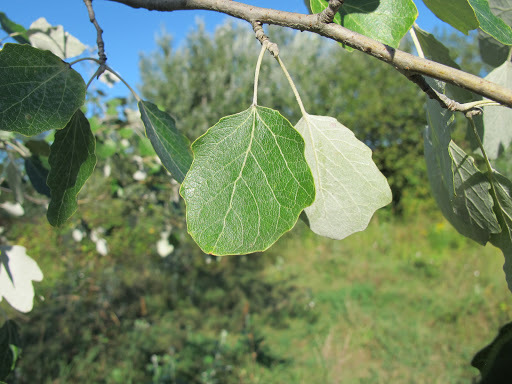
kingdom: Plantae
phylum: Tracheophyta
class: Magnoliopsida
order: Malpighiales
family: Salicaceae
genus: Populus
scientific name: Populus alba
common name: White poplar
